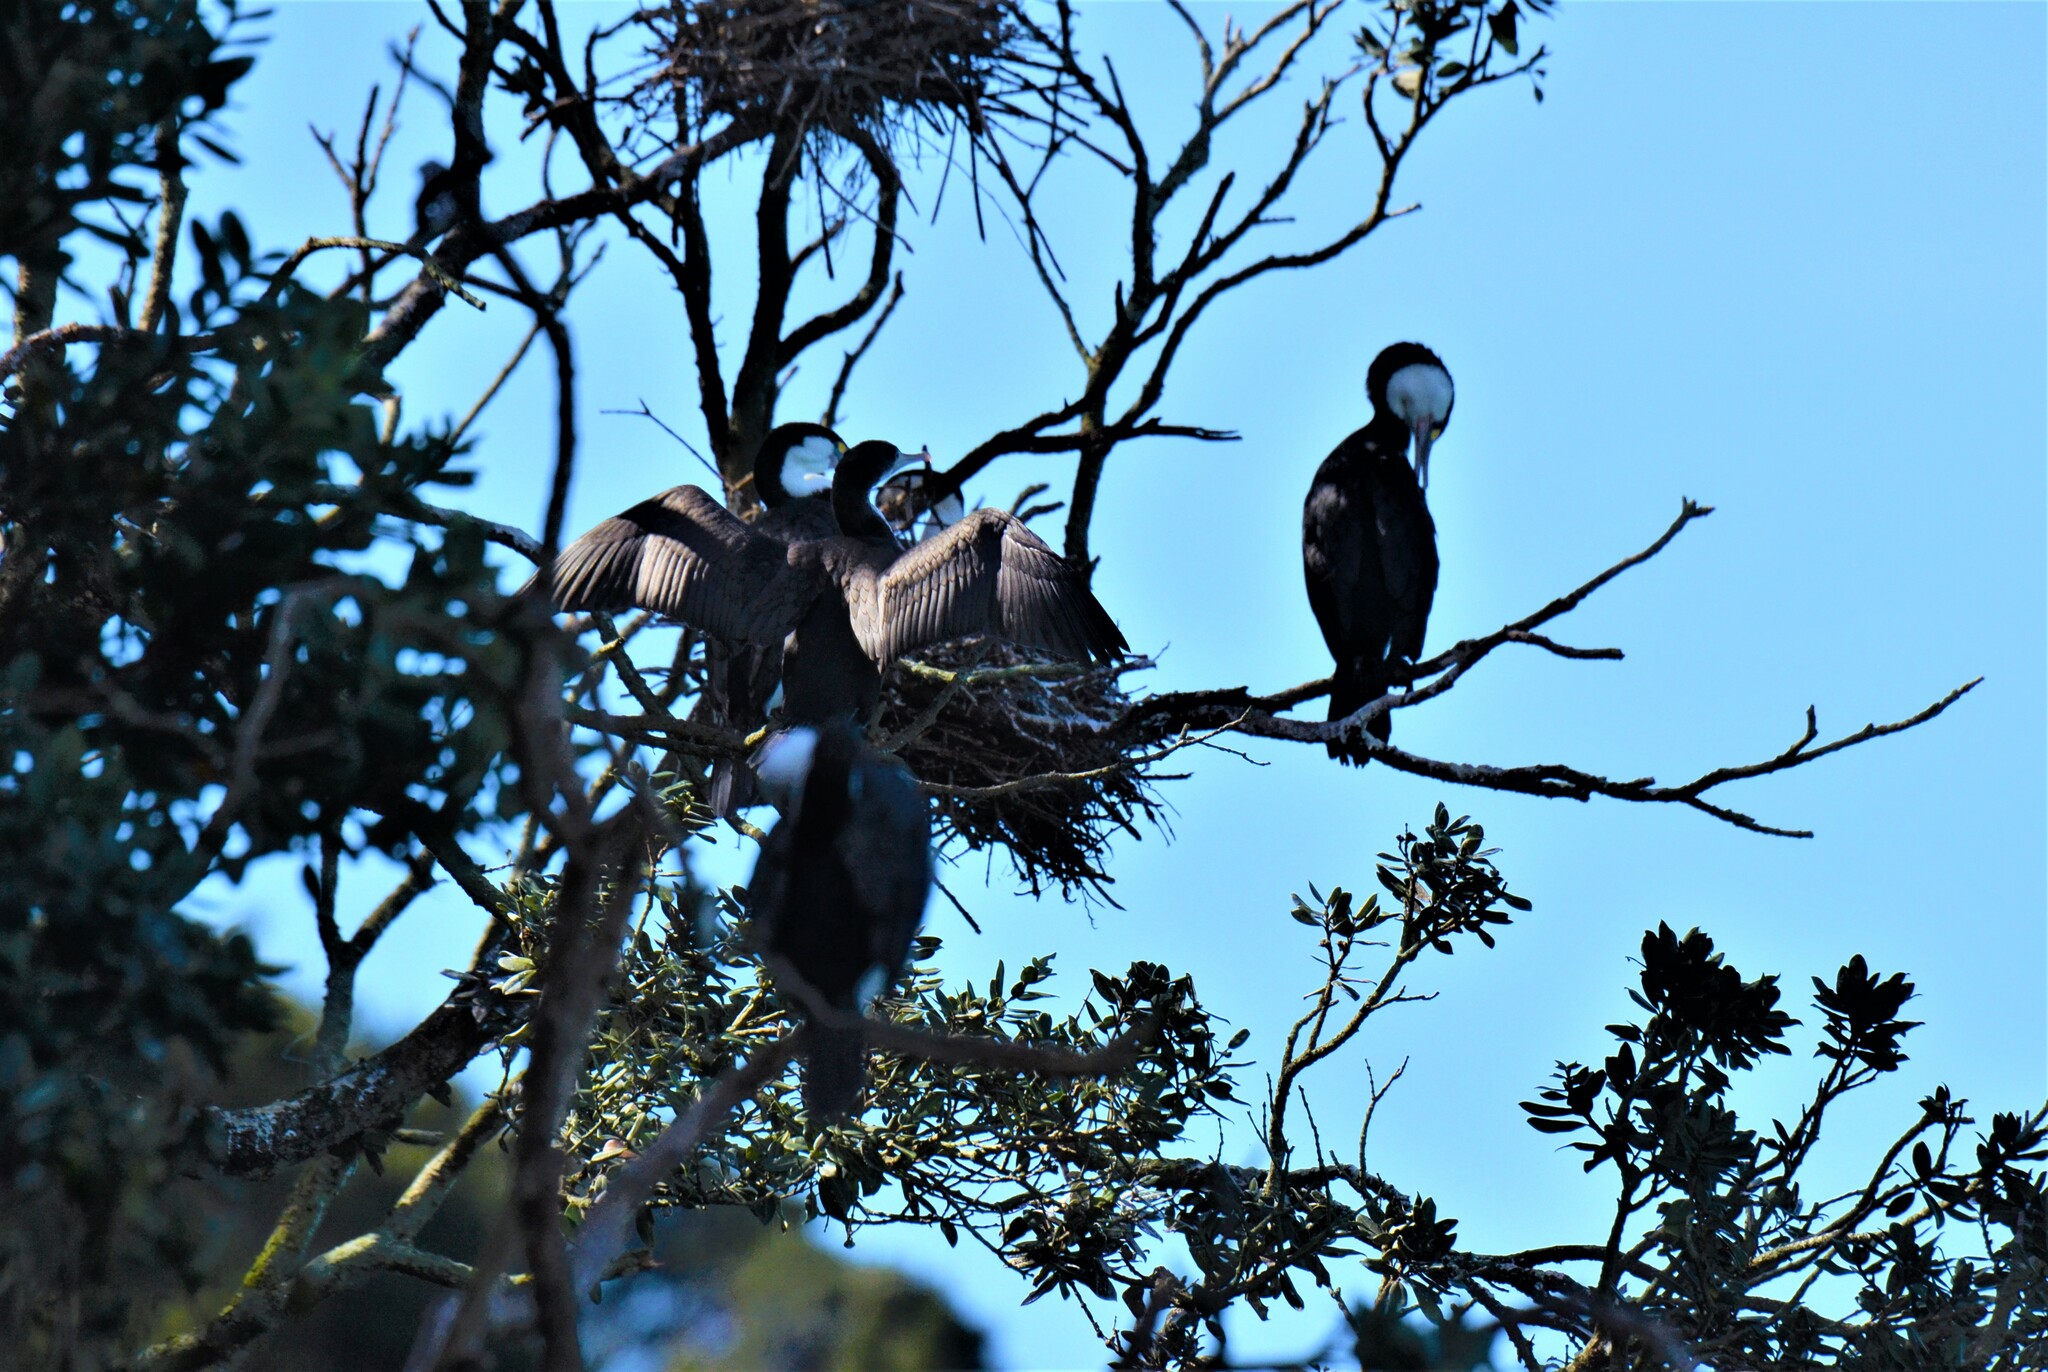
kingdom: Animalia
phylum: Chordata
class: Aves
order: Suliformes
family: Phalacrocoracidae
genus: Phalacrocorax
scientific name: Phalacrocorax varius
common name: Pied cormorant
